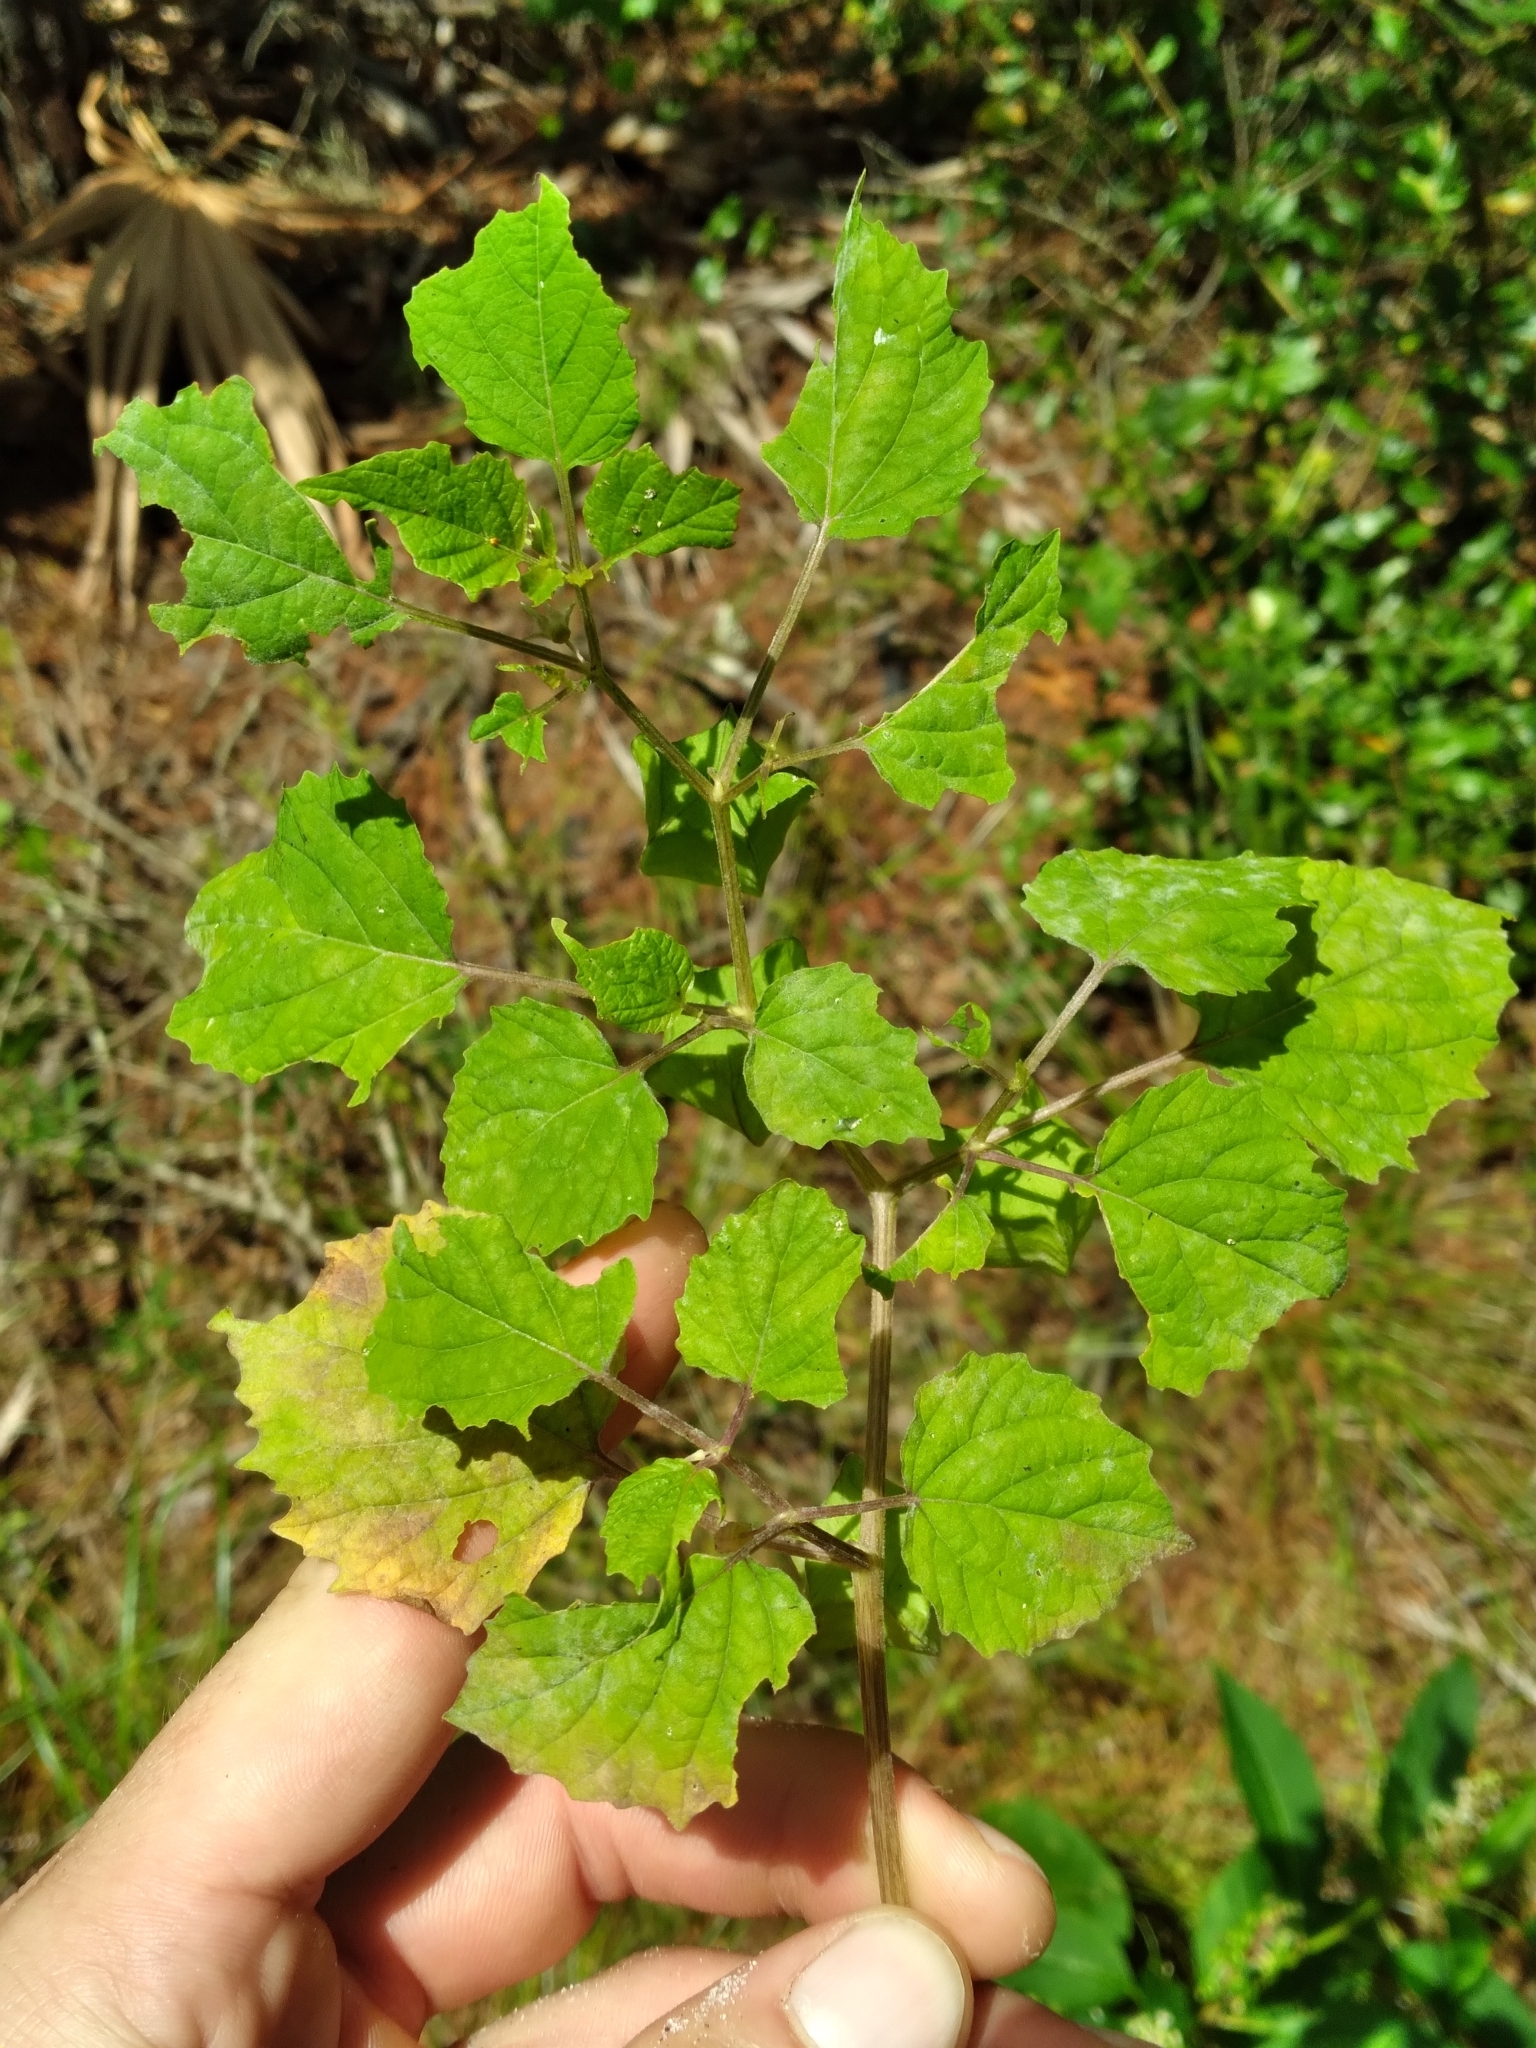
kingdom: Plantae
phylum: Tracheophyta
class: Magnoliopsida
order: Solanales
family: Solanaceae
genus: Physalis
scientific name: Physalis cordata
